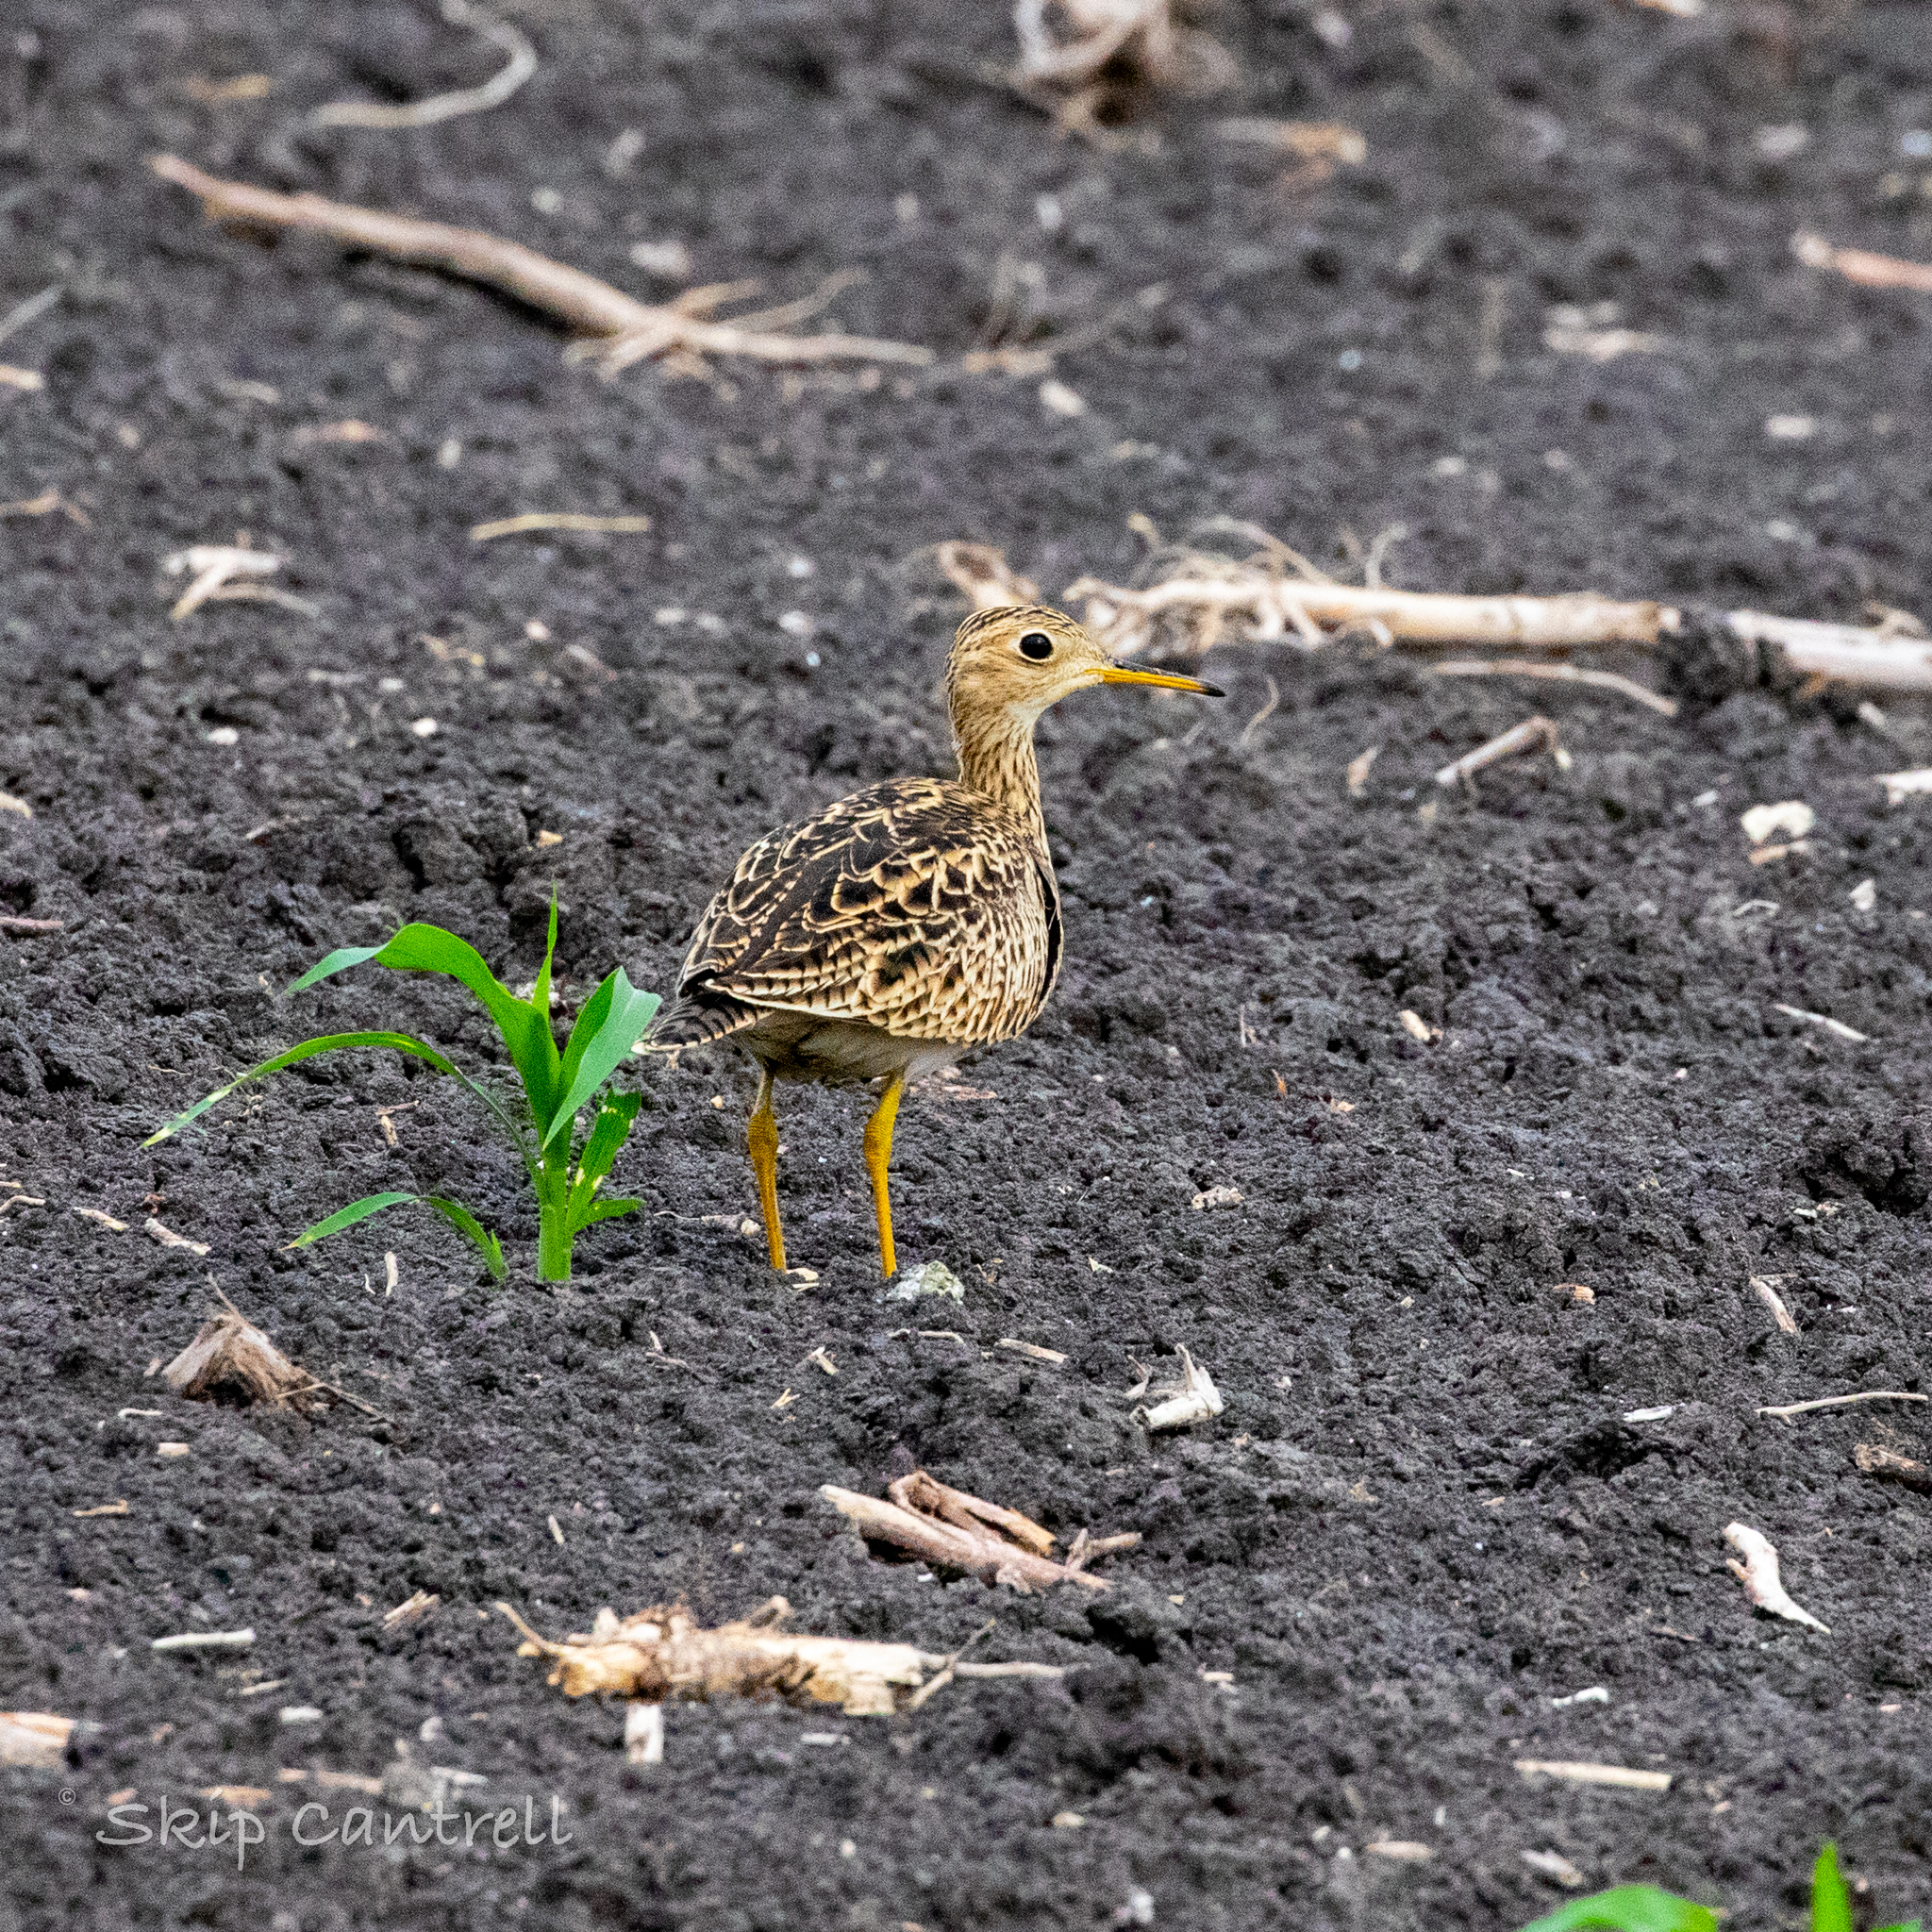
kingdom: Animalia
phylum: Chordata
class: Aves
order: Charadriiformes
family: Scolopacidae
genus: Bartramia
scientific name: Bartramia longicauda
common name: Upland sandpiper
